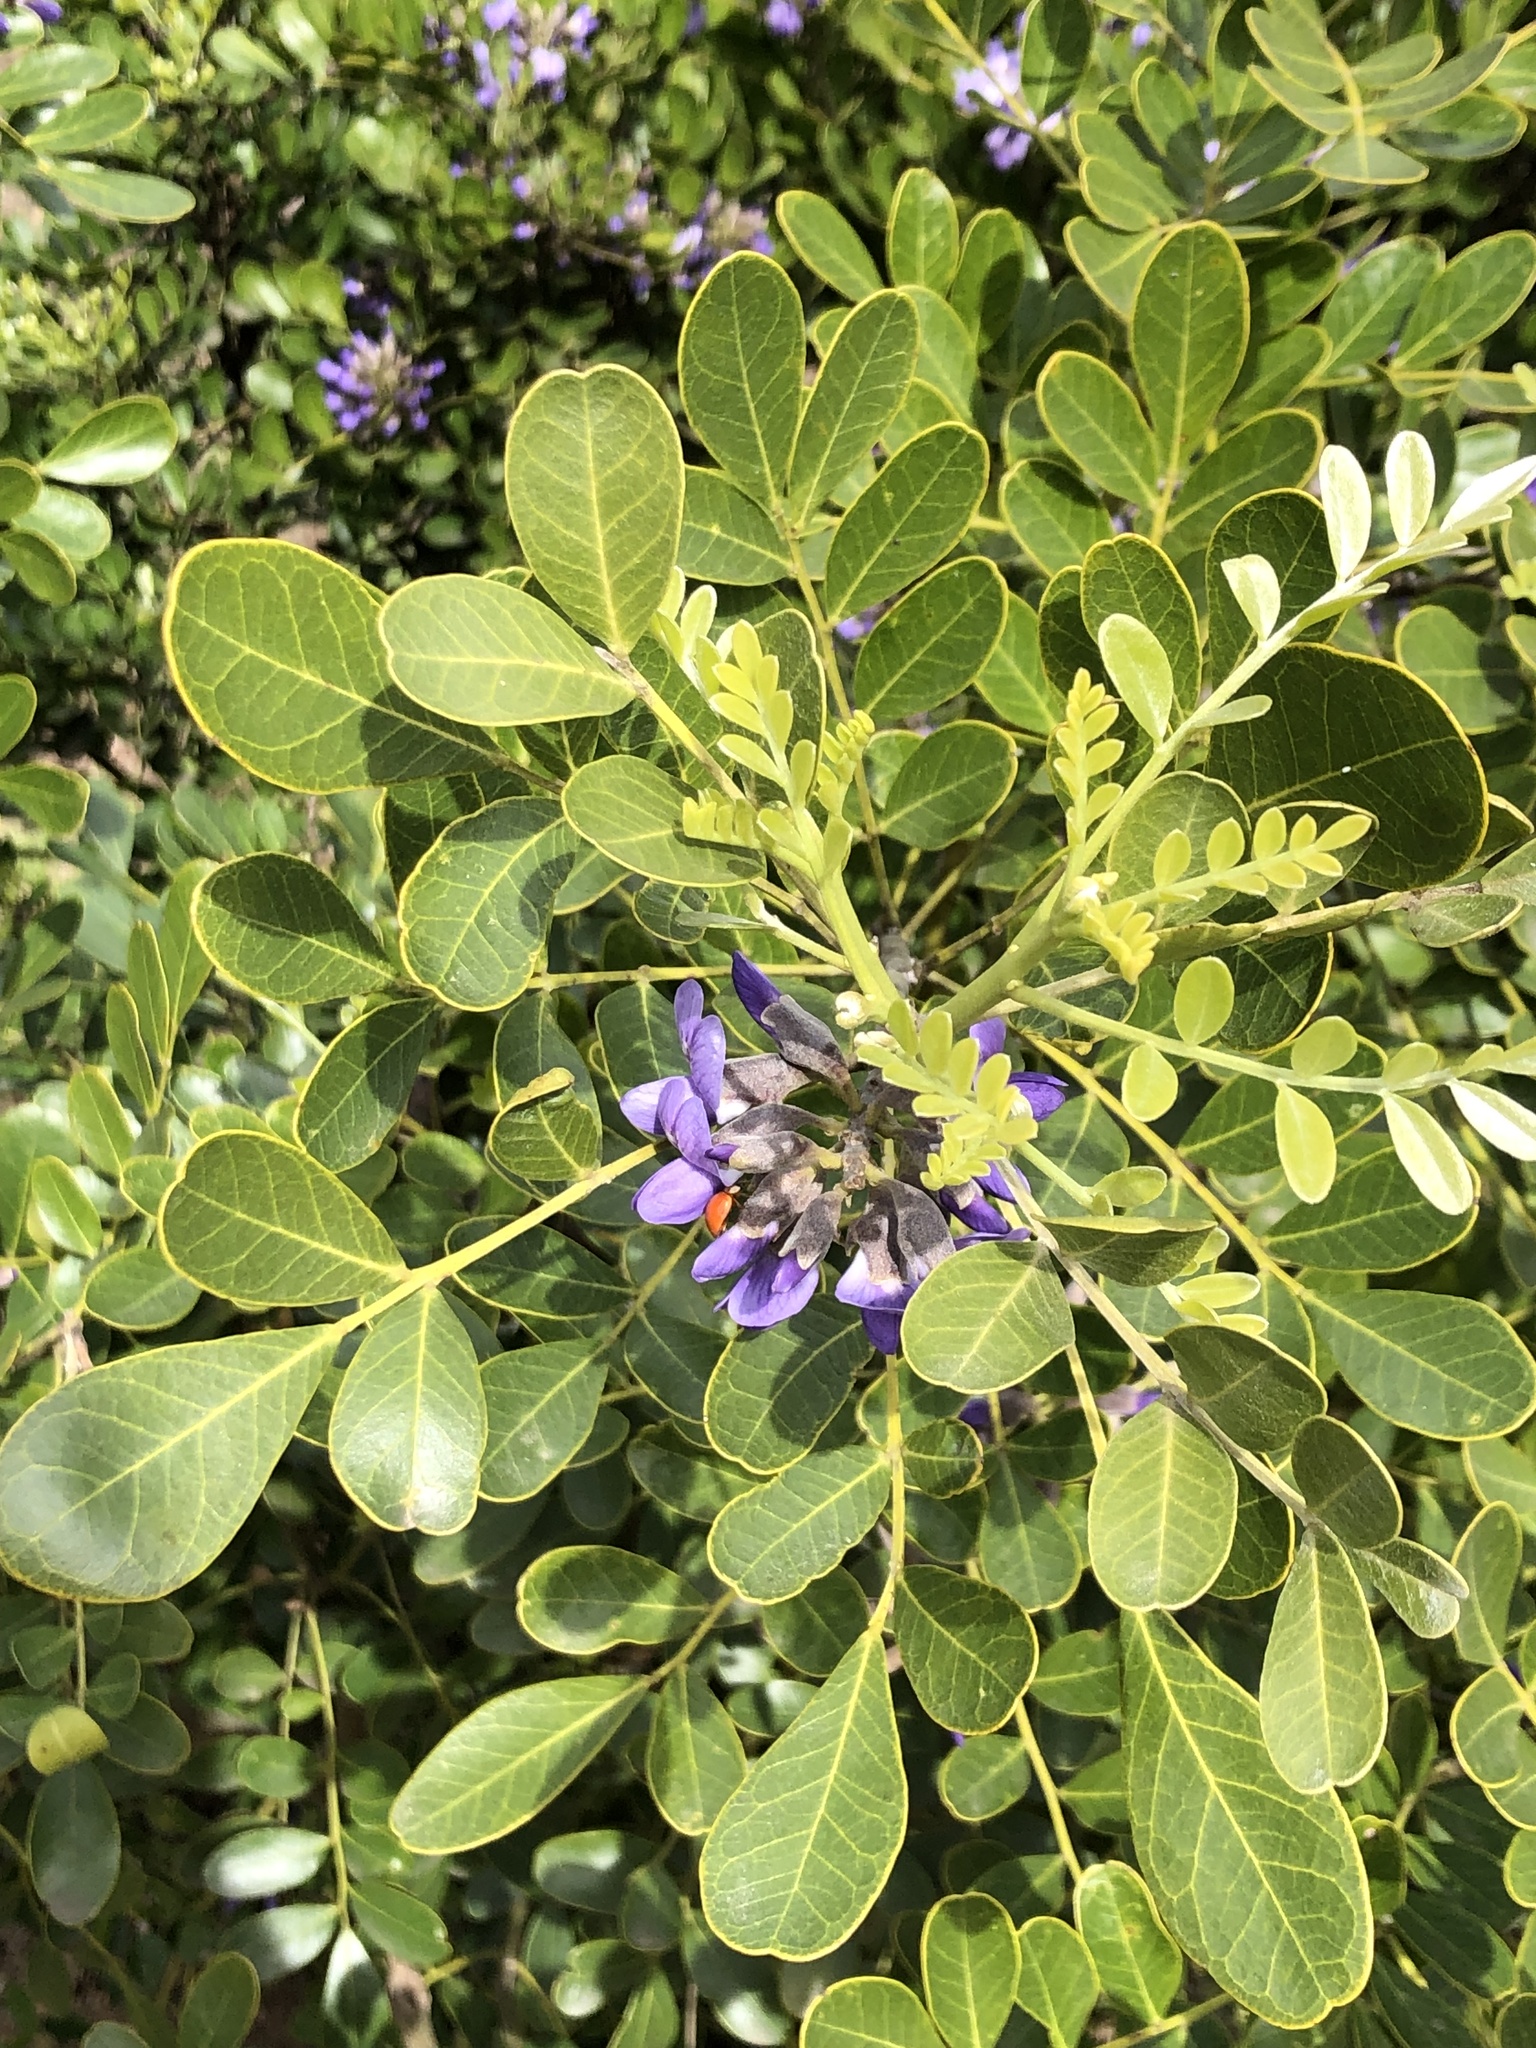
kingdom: Plantae
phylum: Tracheophyta
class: Magnoliopsida
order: Fabales
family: Fabaceae
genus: Dermatophyllum
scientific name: Dermatophyllum secundiflorum
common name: Texas-mountain-laurel
